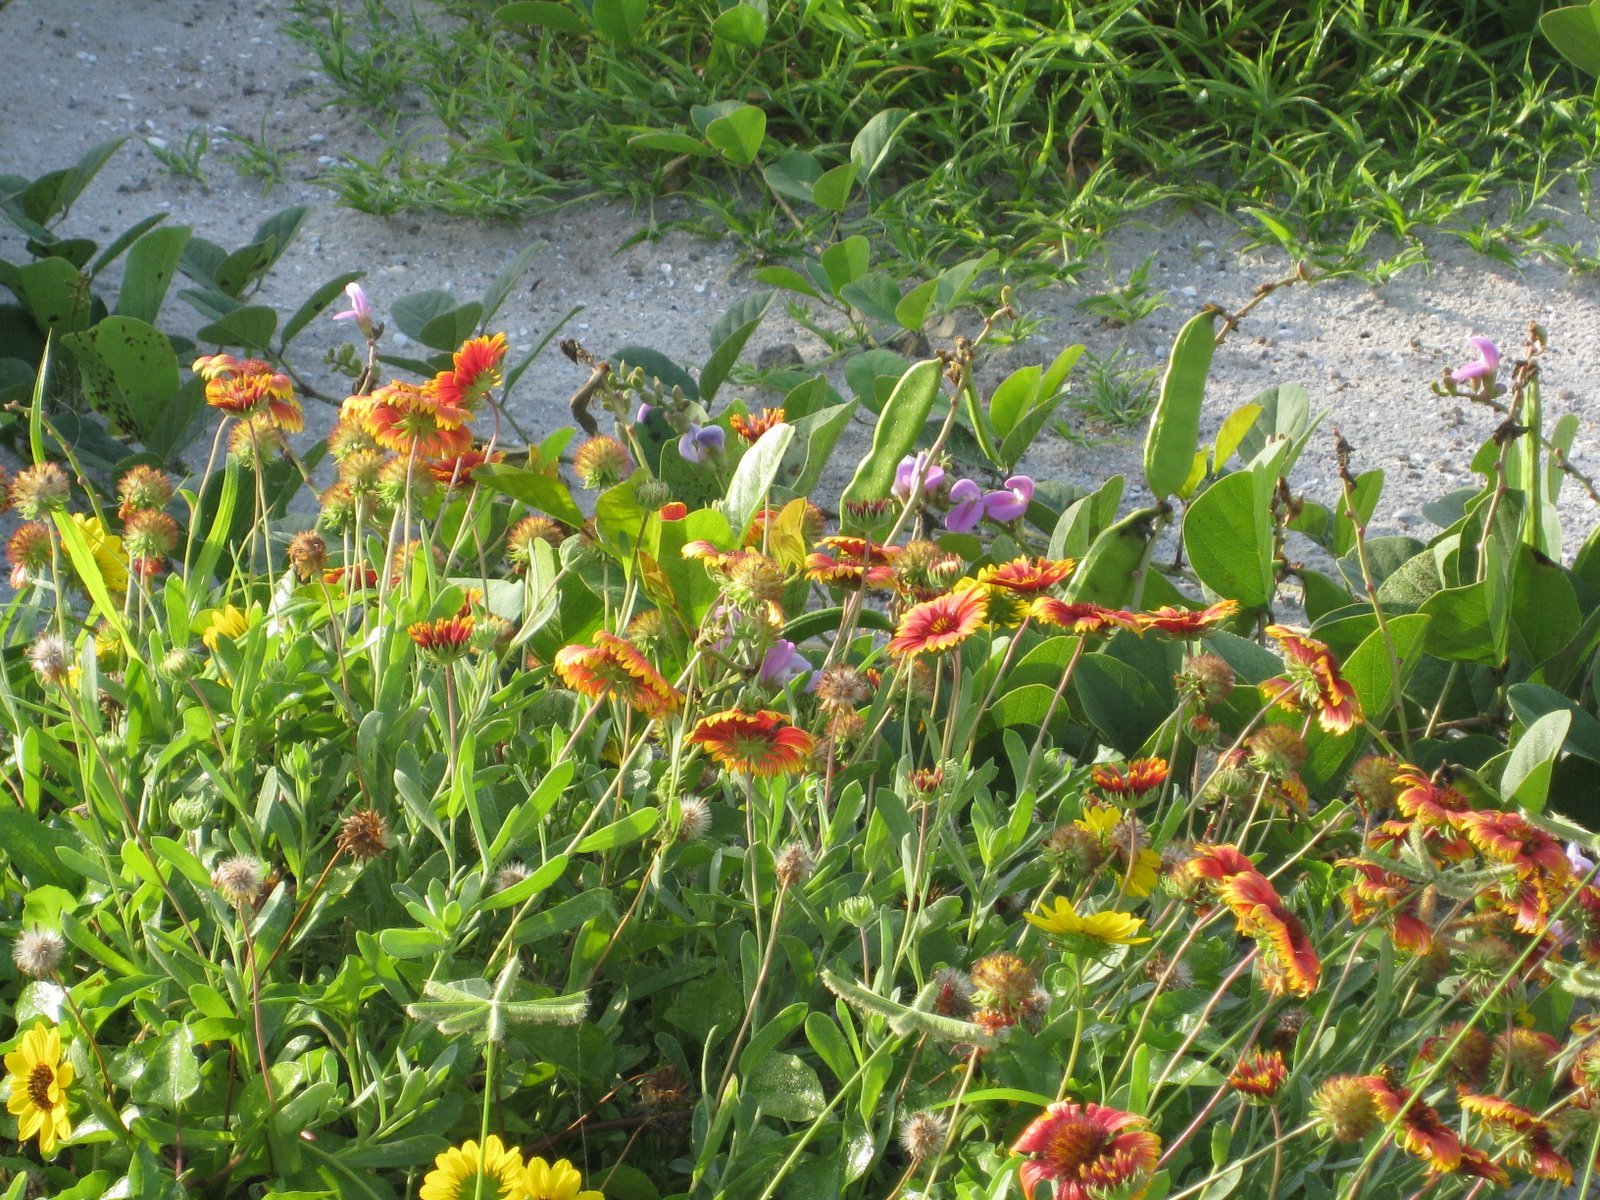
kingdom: Plantae
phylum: Tracheophyta
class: Magnoliopsida
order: Fabales
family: Fabaceae
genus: Canavalia
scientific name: Canavalia rosea
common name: Beach-bean
